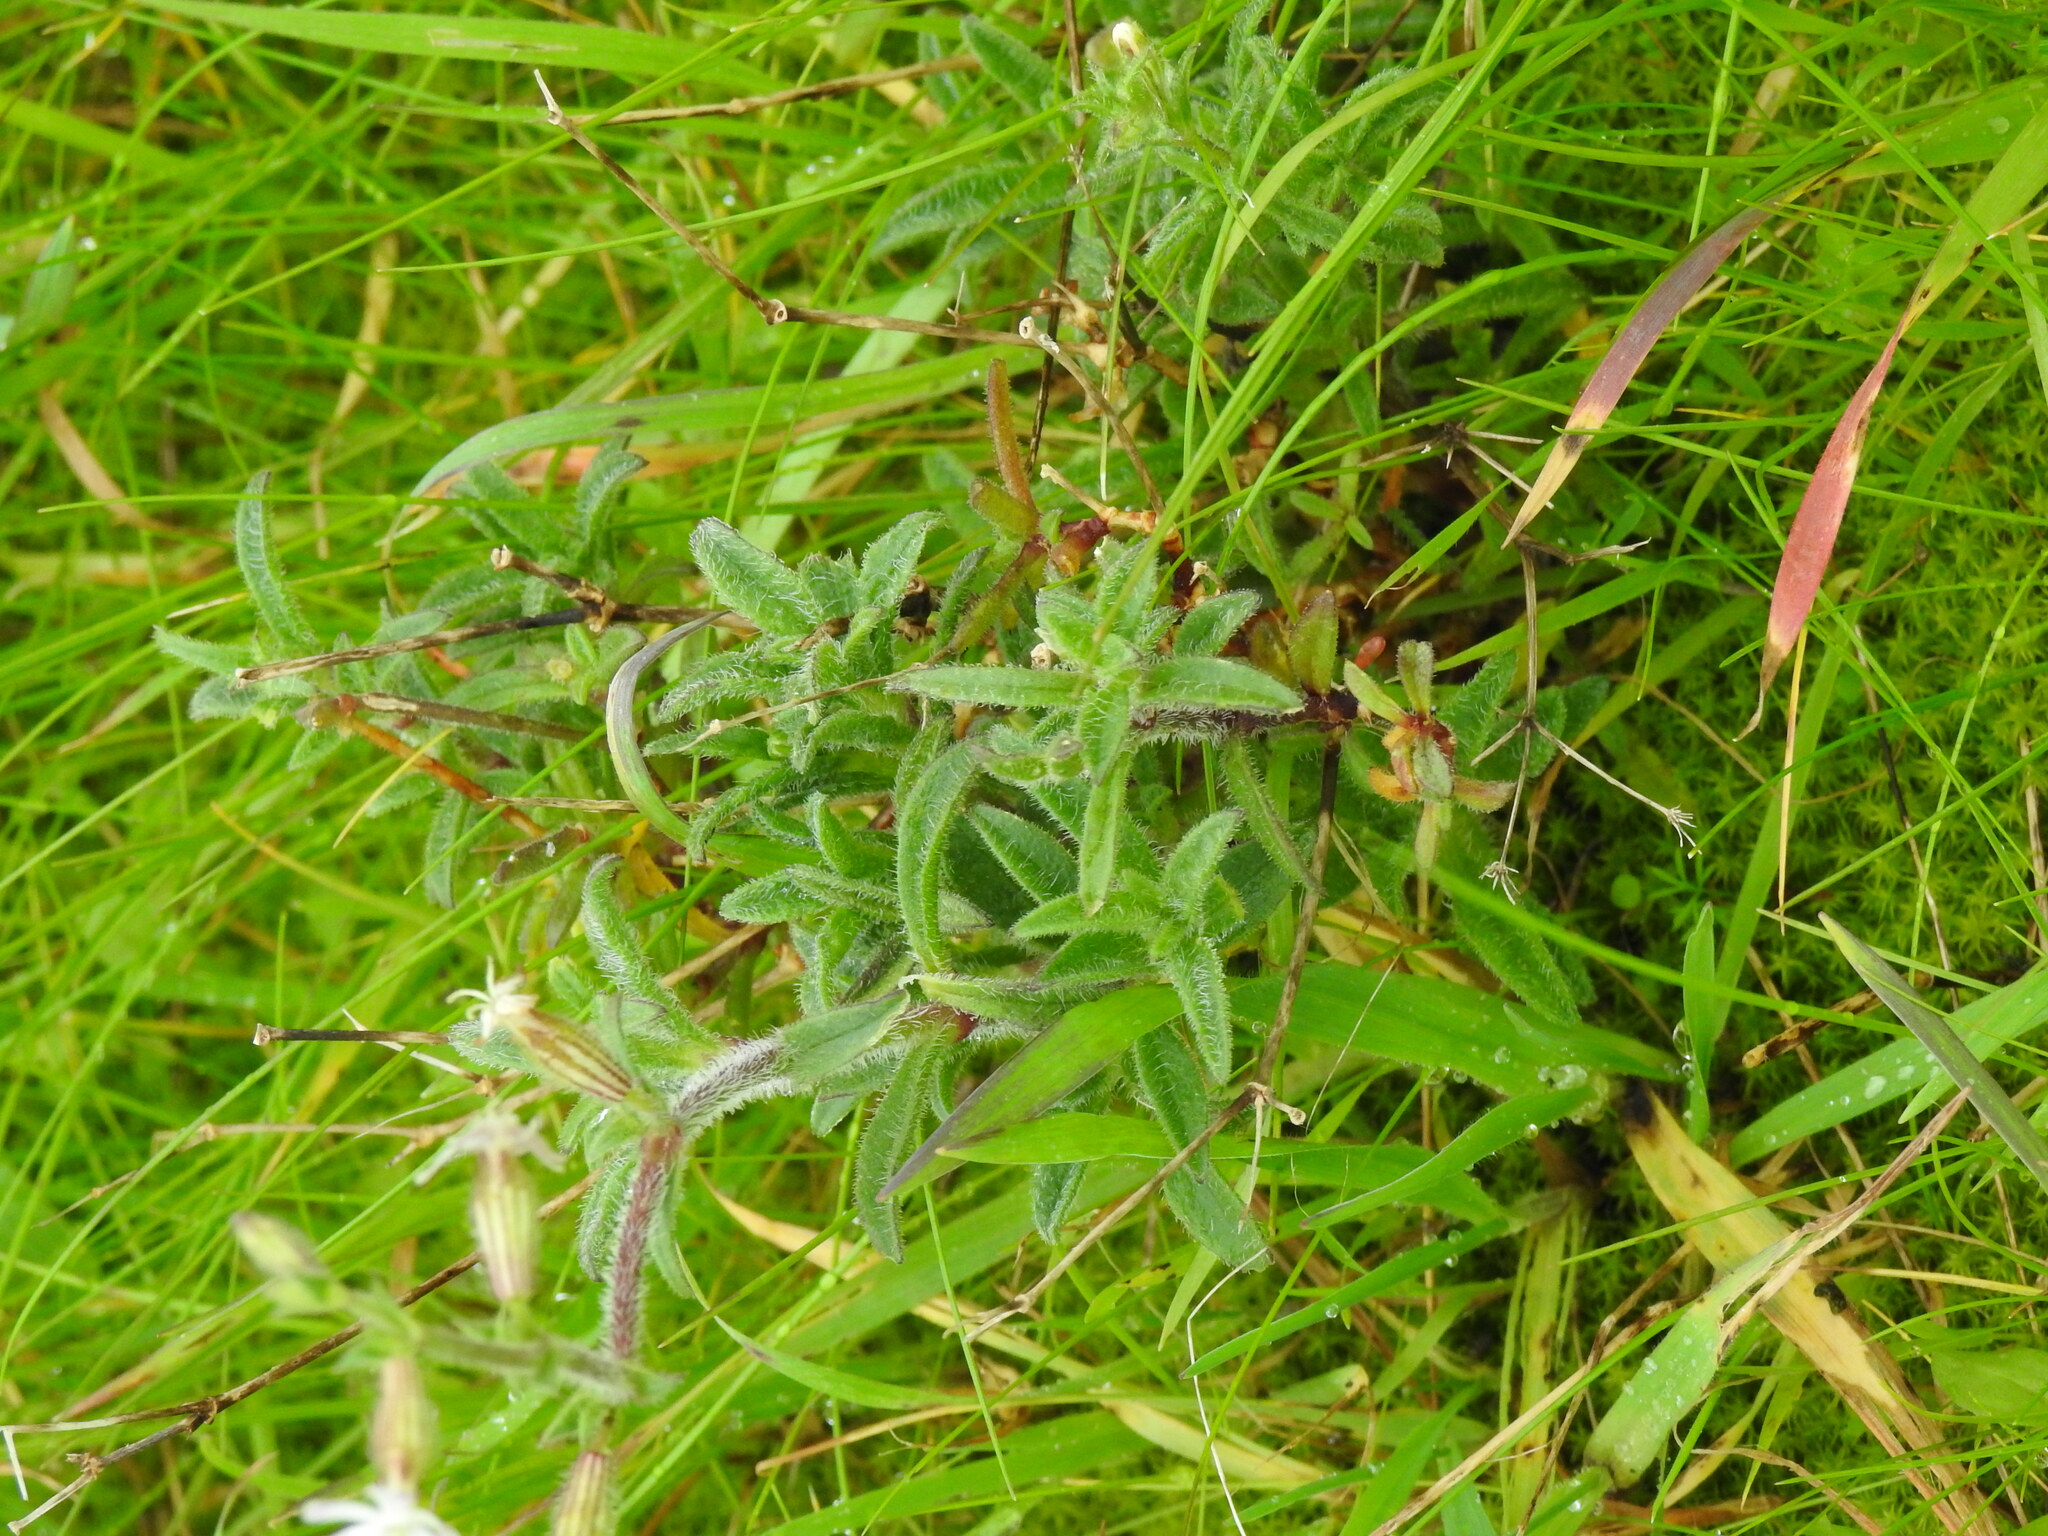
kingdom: Plantae
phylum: Tracheophyta
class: Magnoliopsida
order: Caryophyllales
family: Caryophyllaceae
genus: Silene
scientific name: Silene nicaeensis
